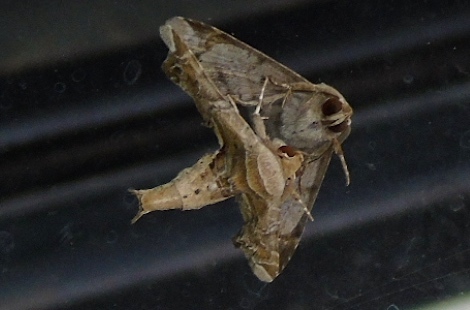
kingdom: Animalia
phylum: Arthropoda
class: Insecta
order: Lepidoptera
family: Euteliidae
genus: Eutelia
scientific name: Eutelia
